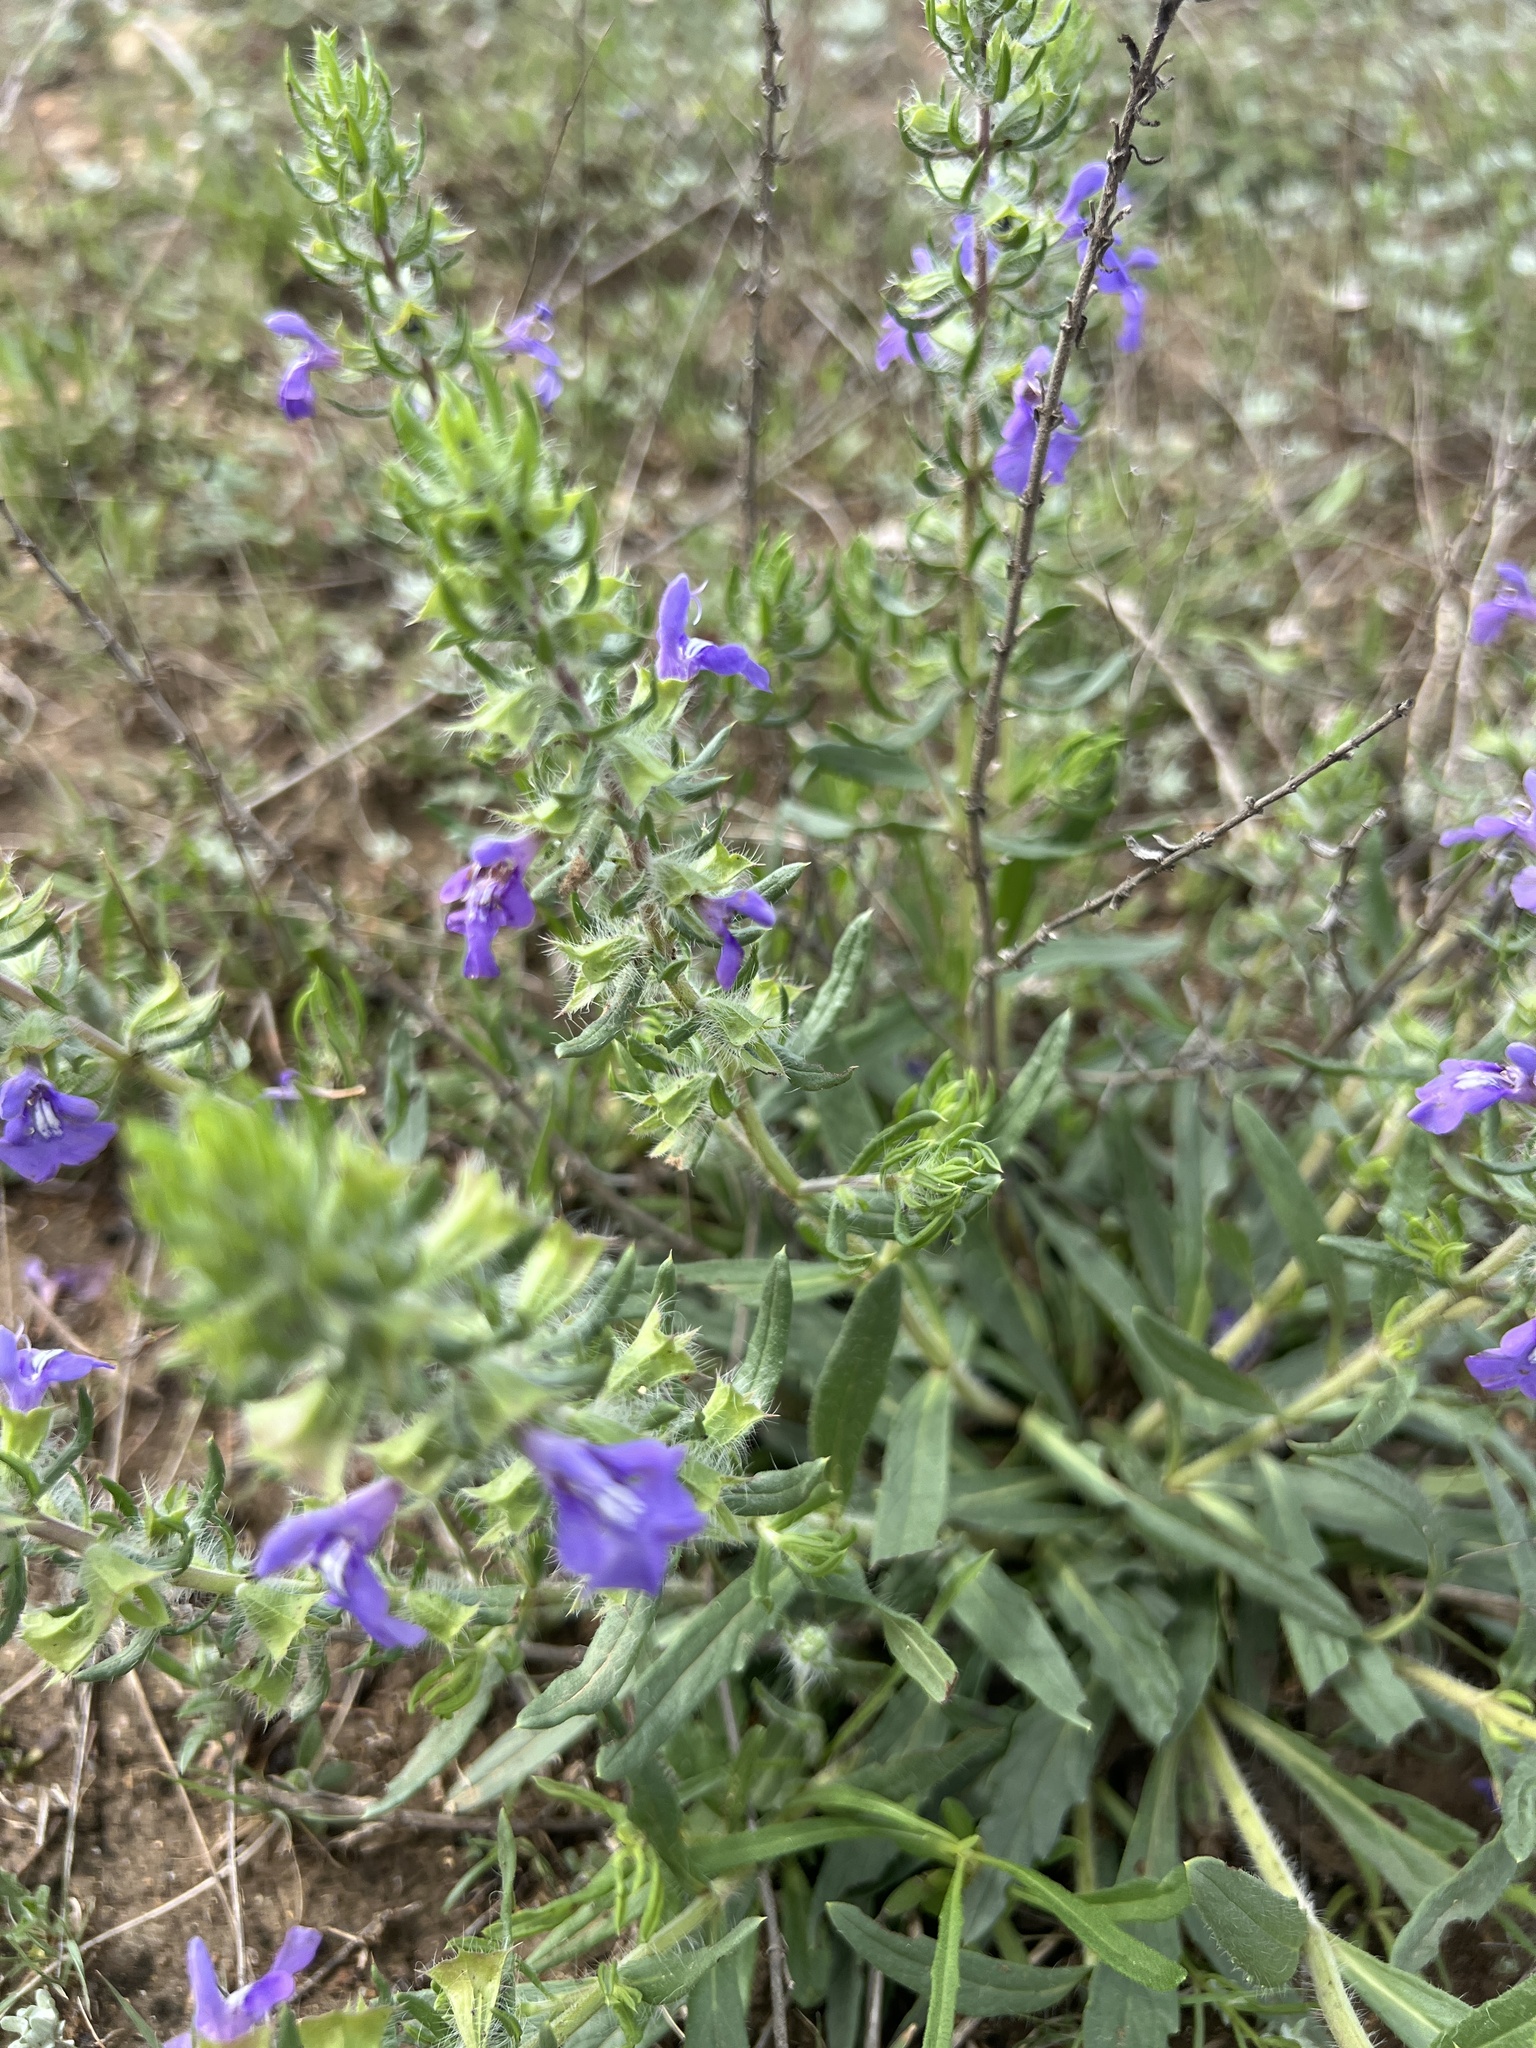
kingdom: Plantae
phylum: Tracheophyta
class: Magnoliopsida
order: Lamiales
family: Lamiaceae
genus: Salvia
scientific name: Salvia texana
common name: Texas sage
